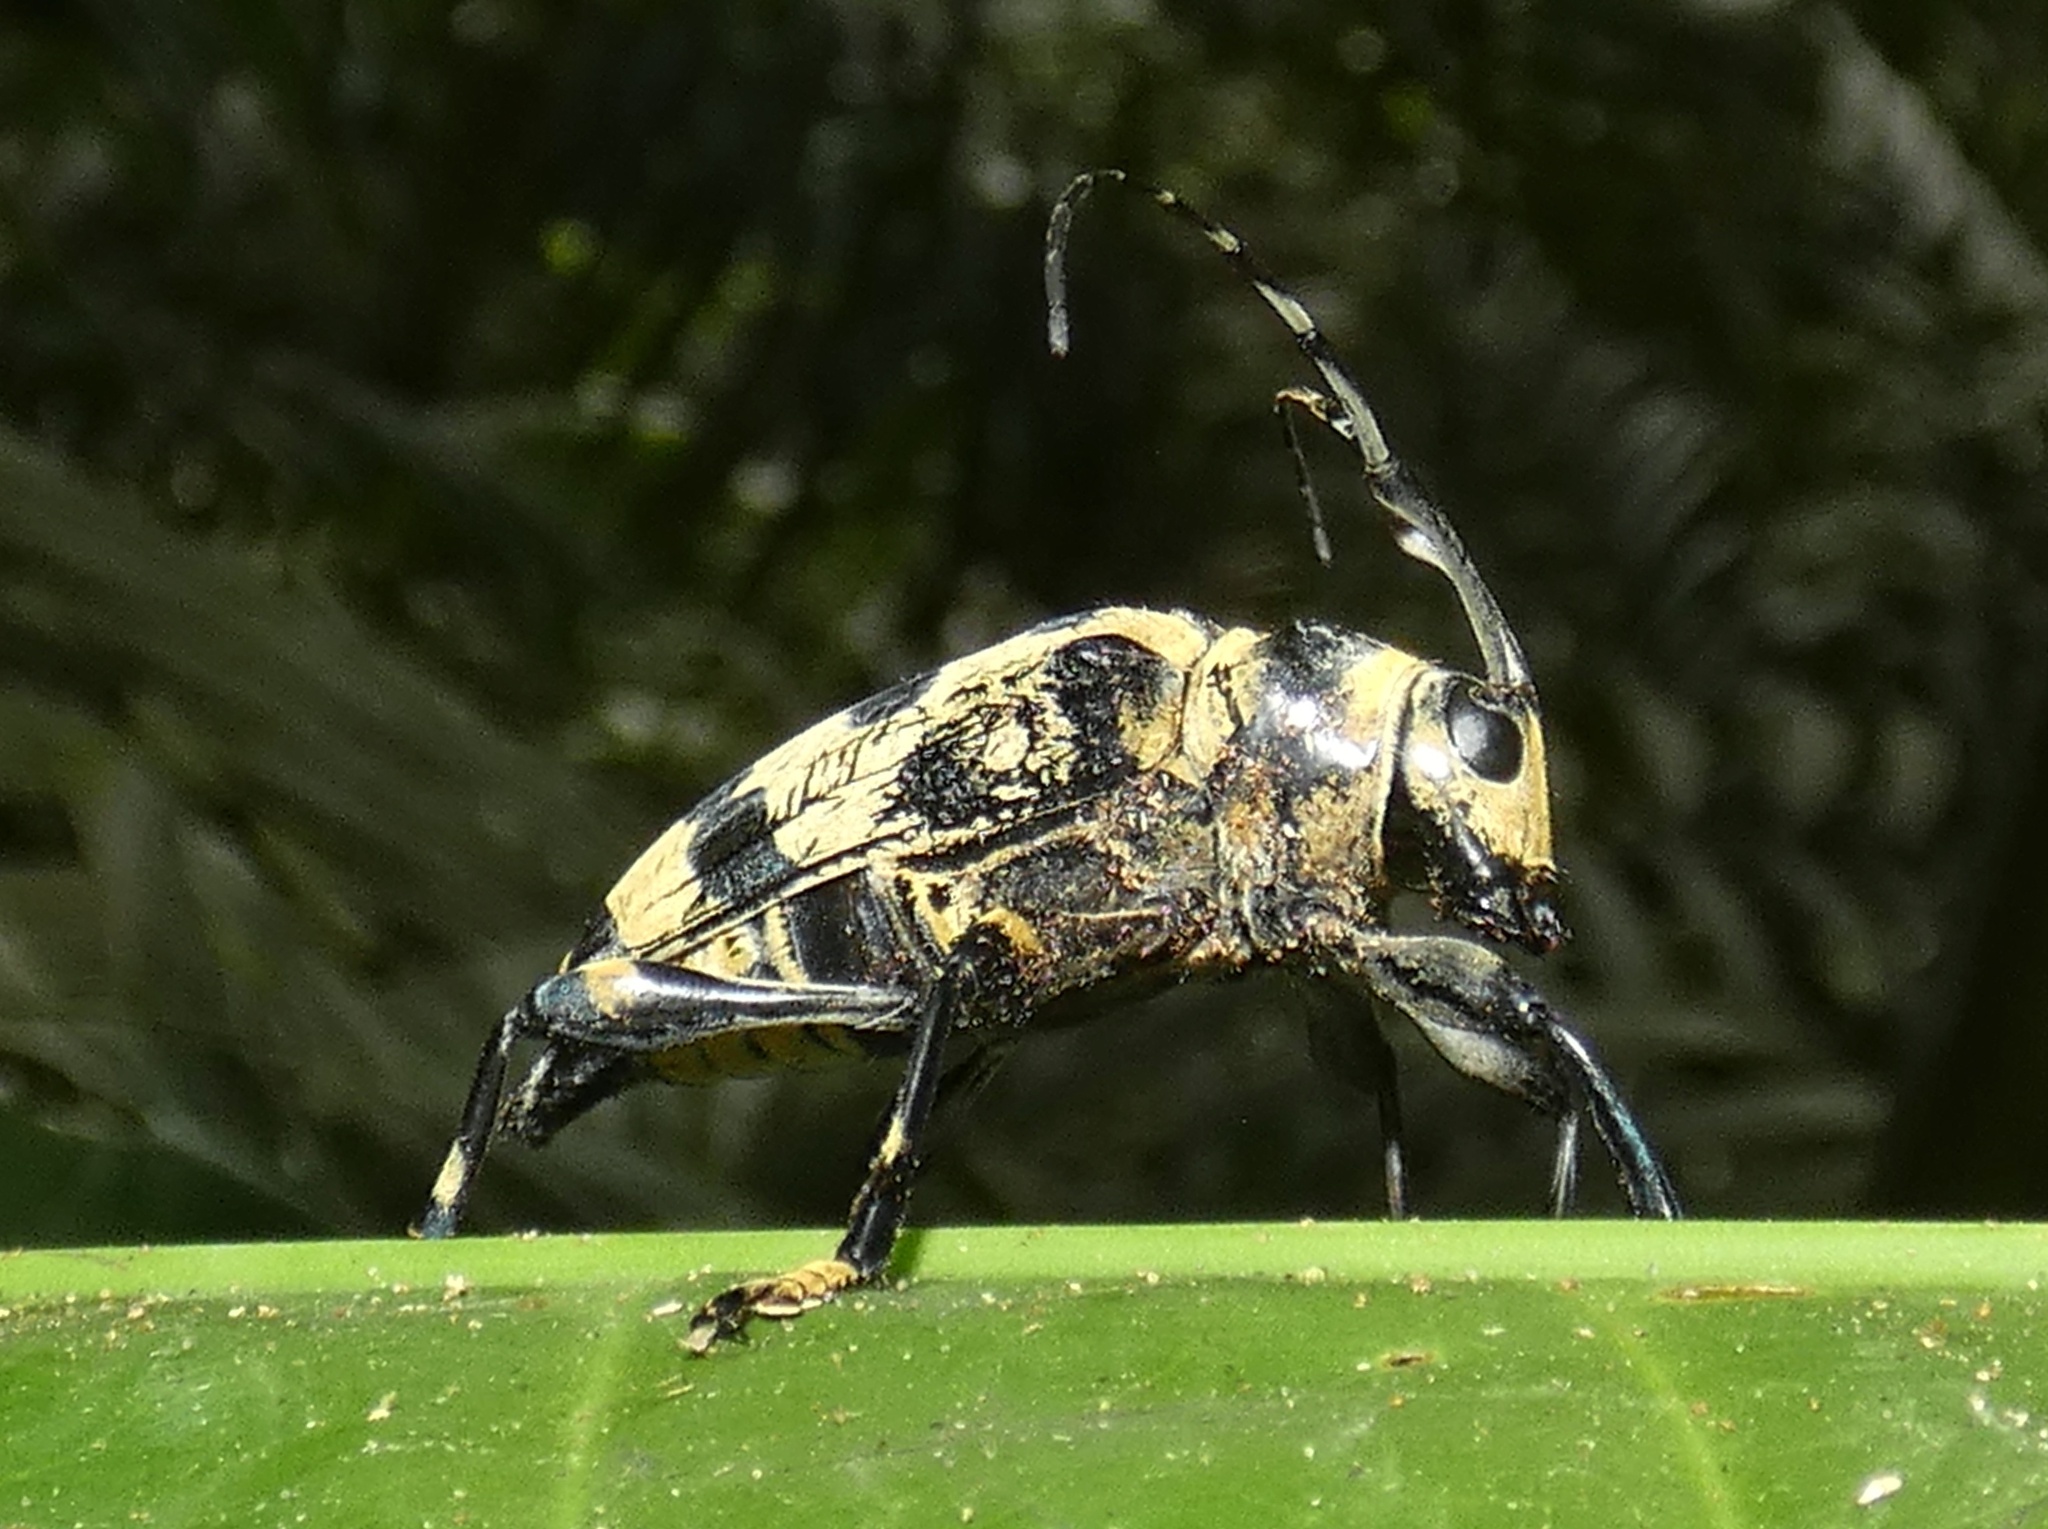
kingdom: Animalia
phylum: Arthropoda
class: Insecta
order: Coleoptera
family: Cerambycidae
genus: Carneades
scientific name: Carneades championi
